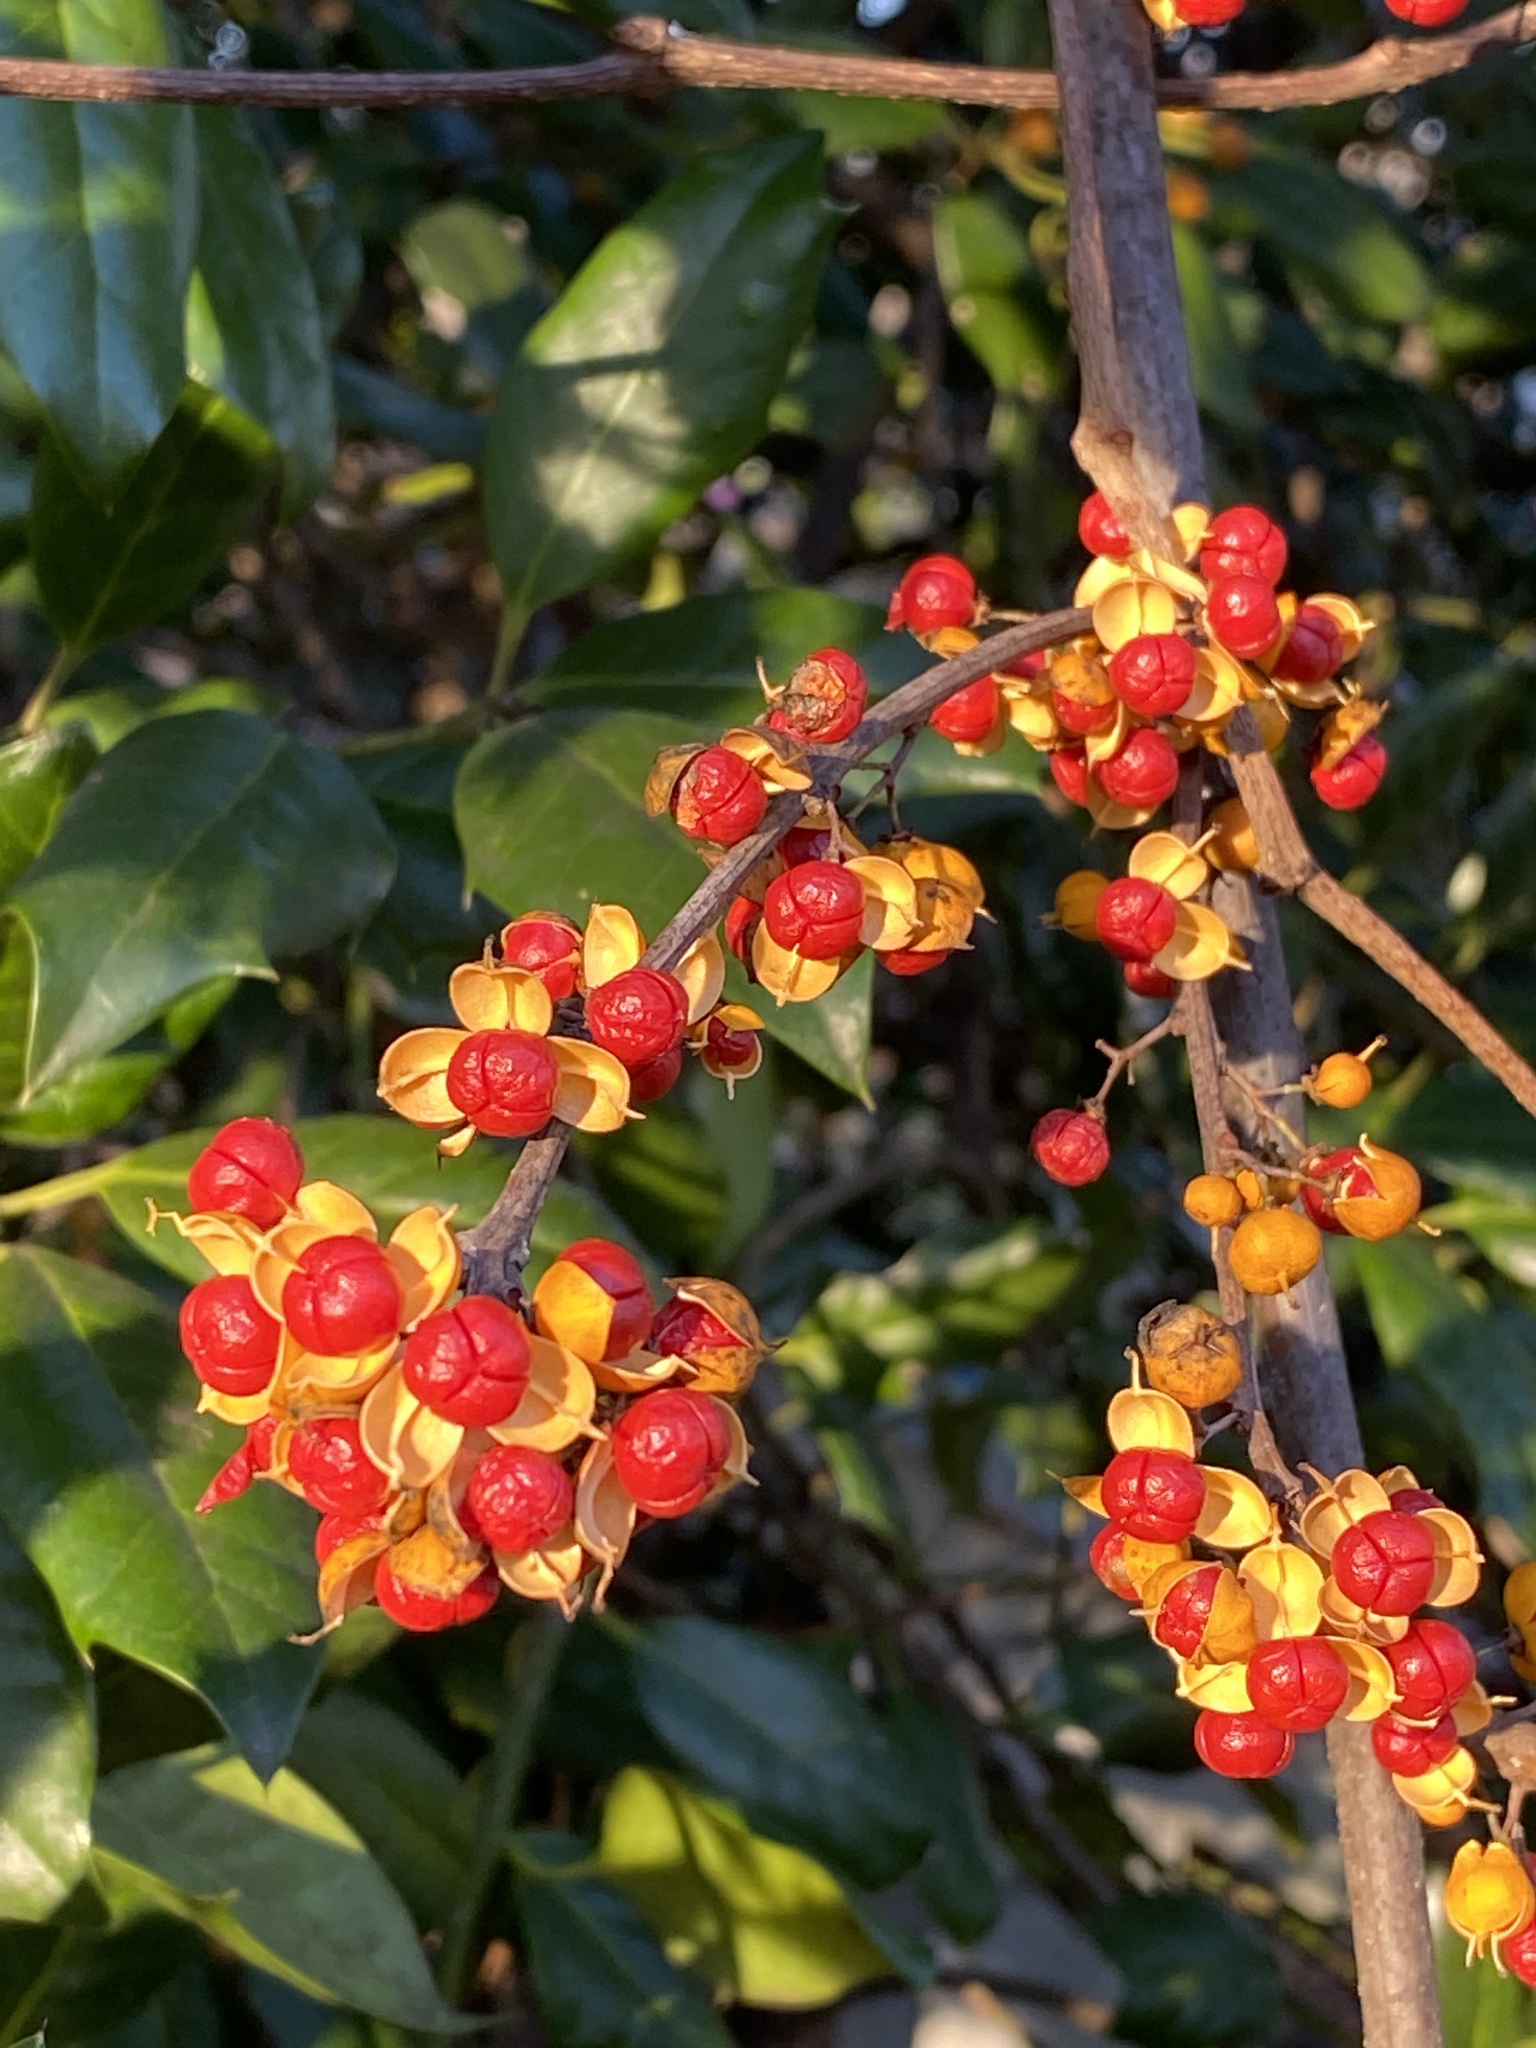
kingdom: Plantae
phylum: Tracheophyta
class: Magnoliopsida
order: Celastrales
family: Celastraceae
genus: Celastrus
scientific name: Celastrus orbiculatus
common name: Oriental bittersweet
